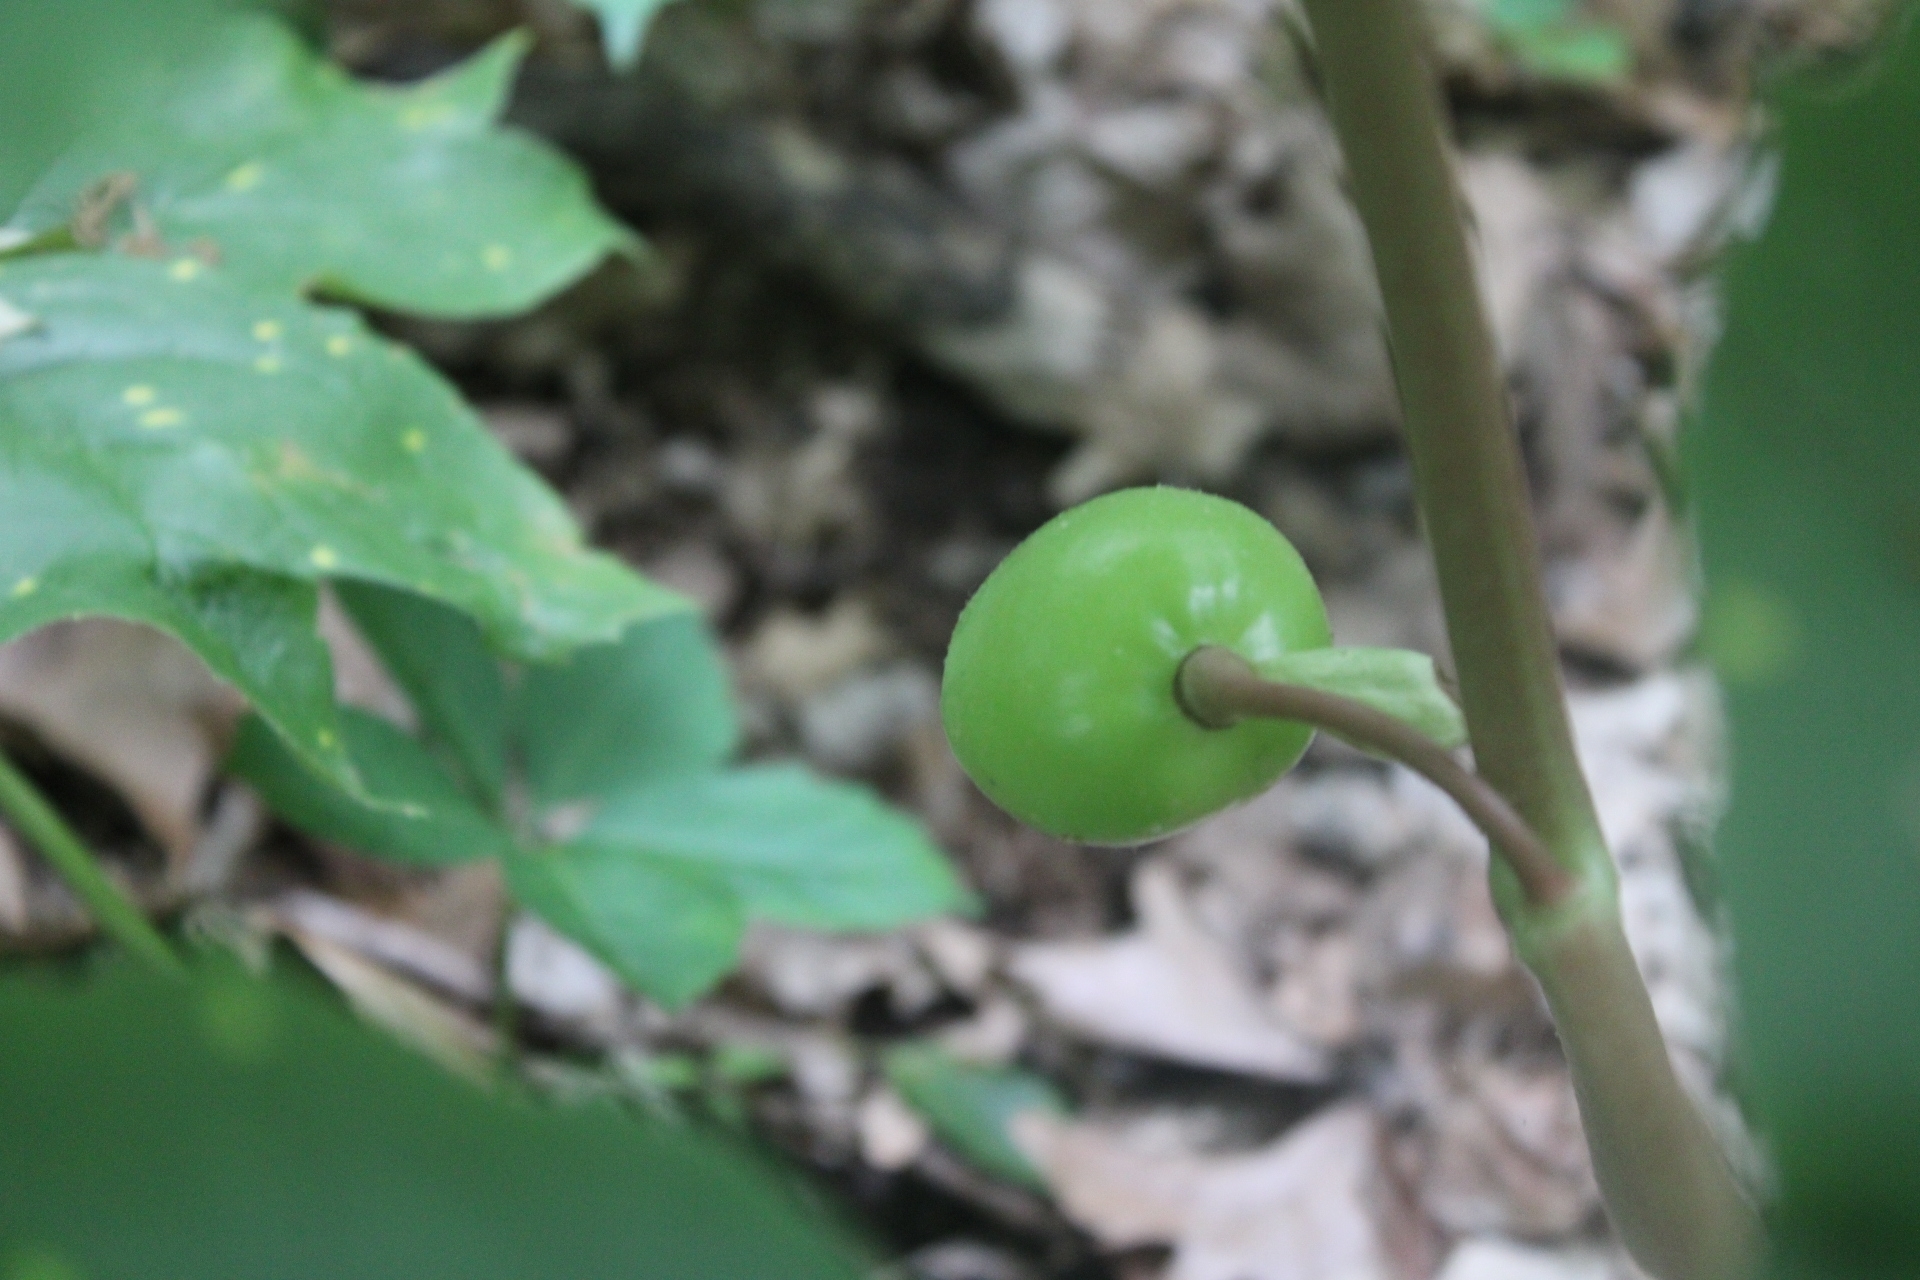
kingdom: Plantae
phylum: Tracheophyta
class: Magnoliopsida
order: Ranunculales
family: Berberidaceae
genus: Podophyllum
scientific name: Podophyllum peltatum
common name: Wild mandrake
